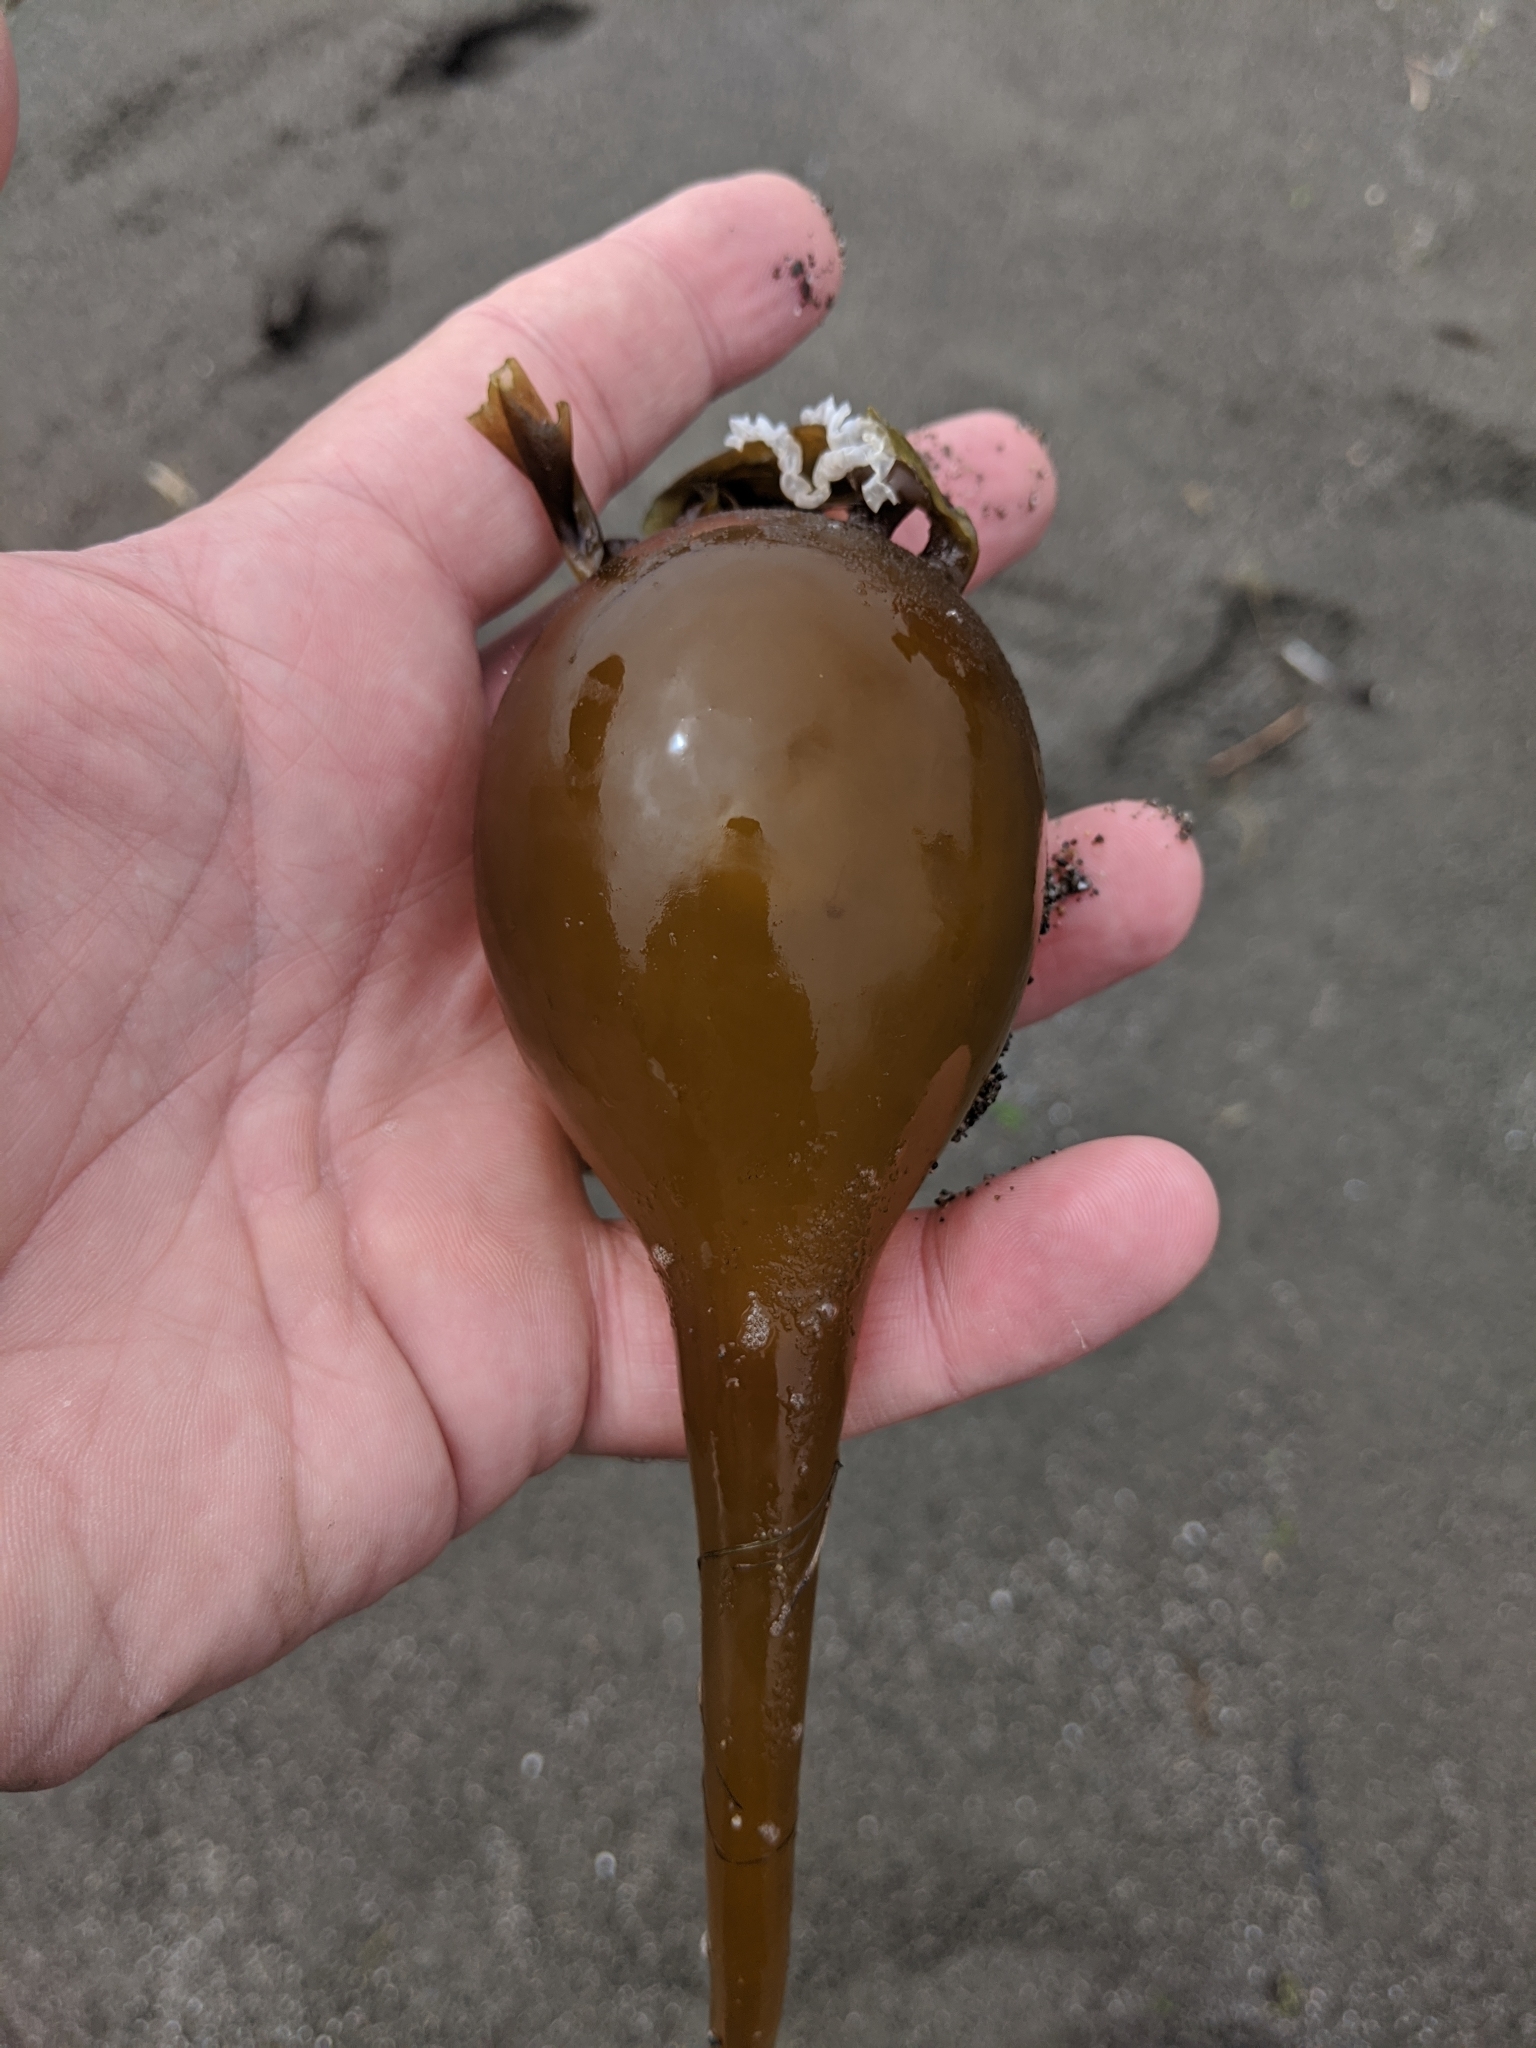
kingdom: Chromista
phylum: Ochrophyta
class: Phaeophyceae
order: Laminariales
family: Laminariaceae
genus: Nereocystis
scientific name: Nereocystis luetkeana
